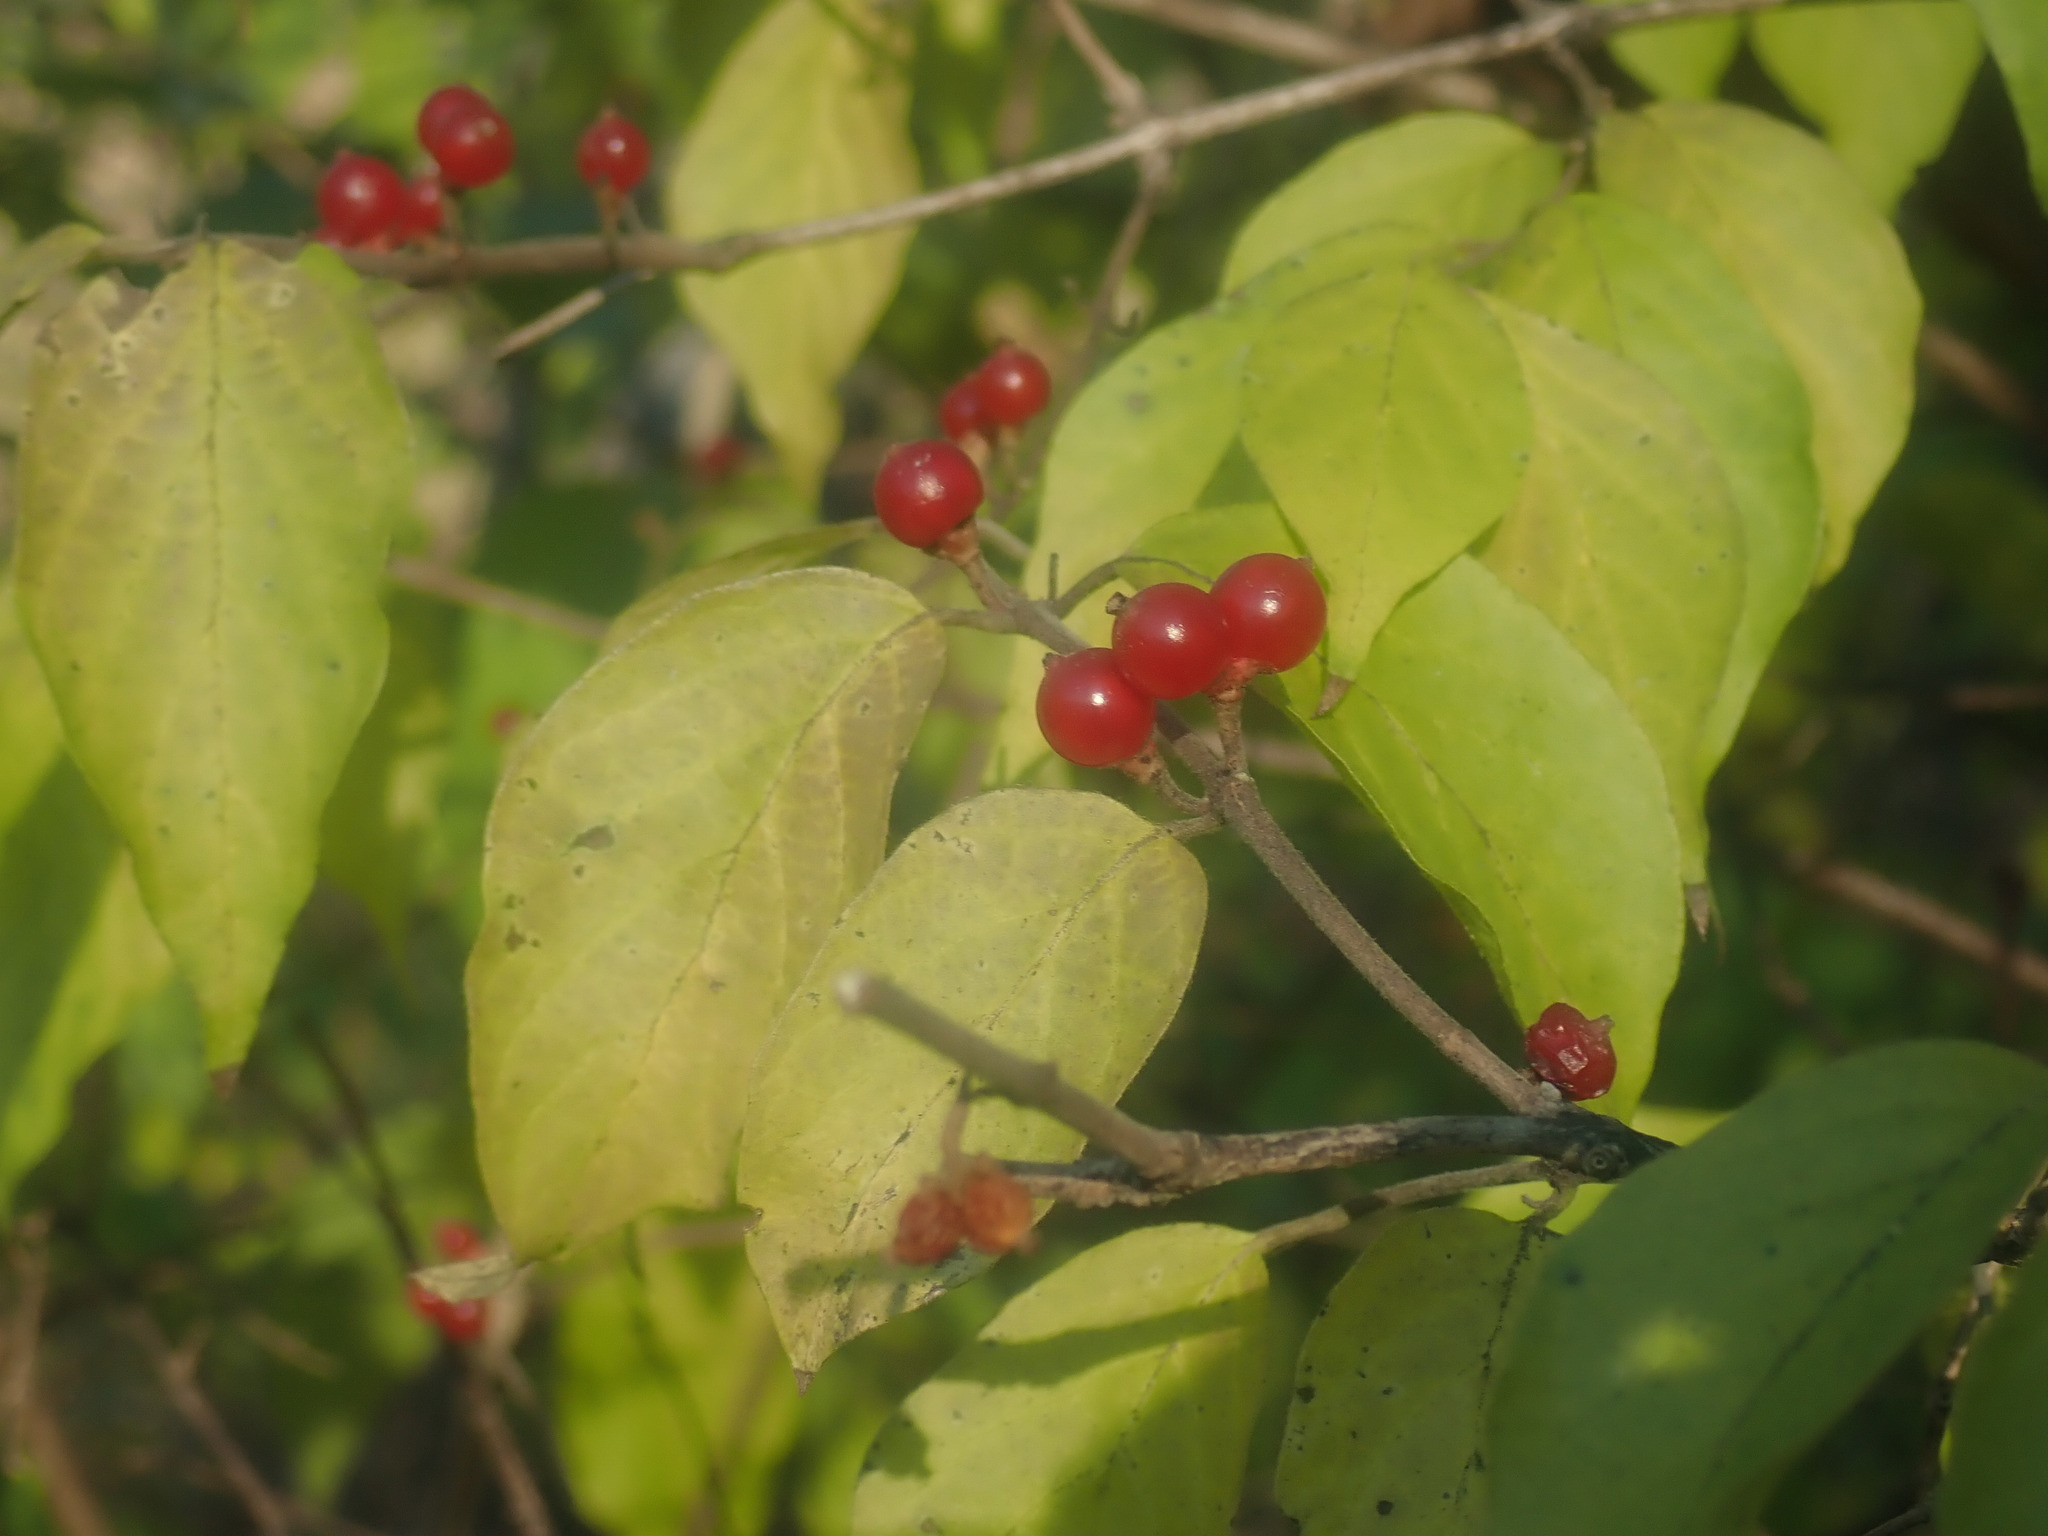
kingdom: Plantae
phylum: Tracheophyta
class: Magnoliopsida
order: Dipsacales
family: Caprifoliaceae
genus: Lonicera
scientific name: Lonicera maackii
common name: Amur honeysuckle
